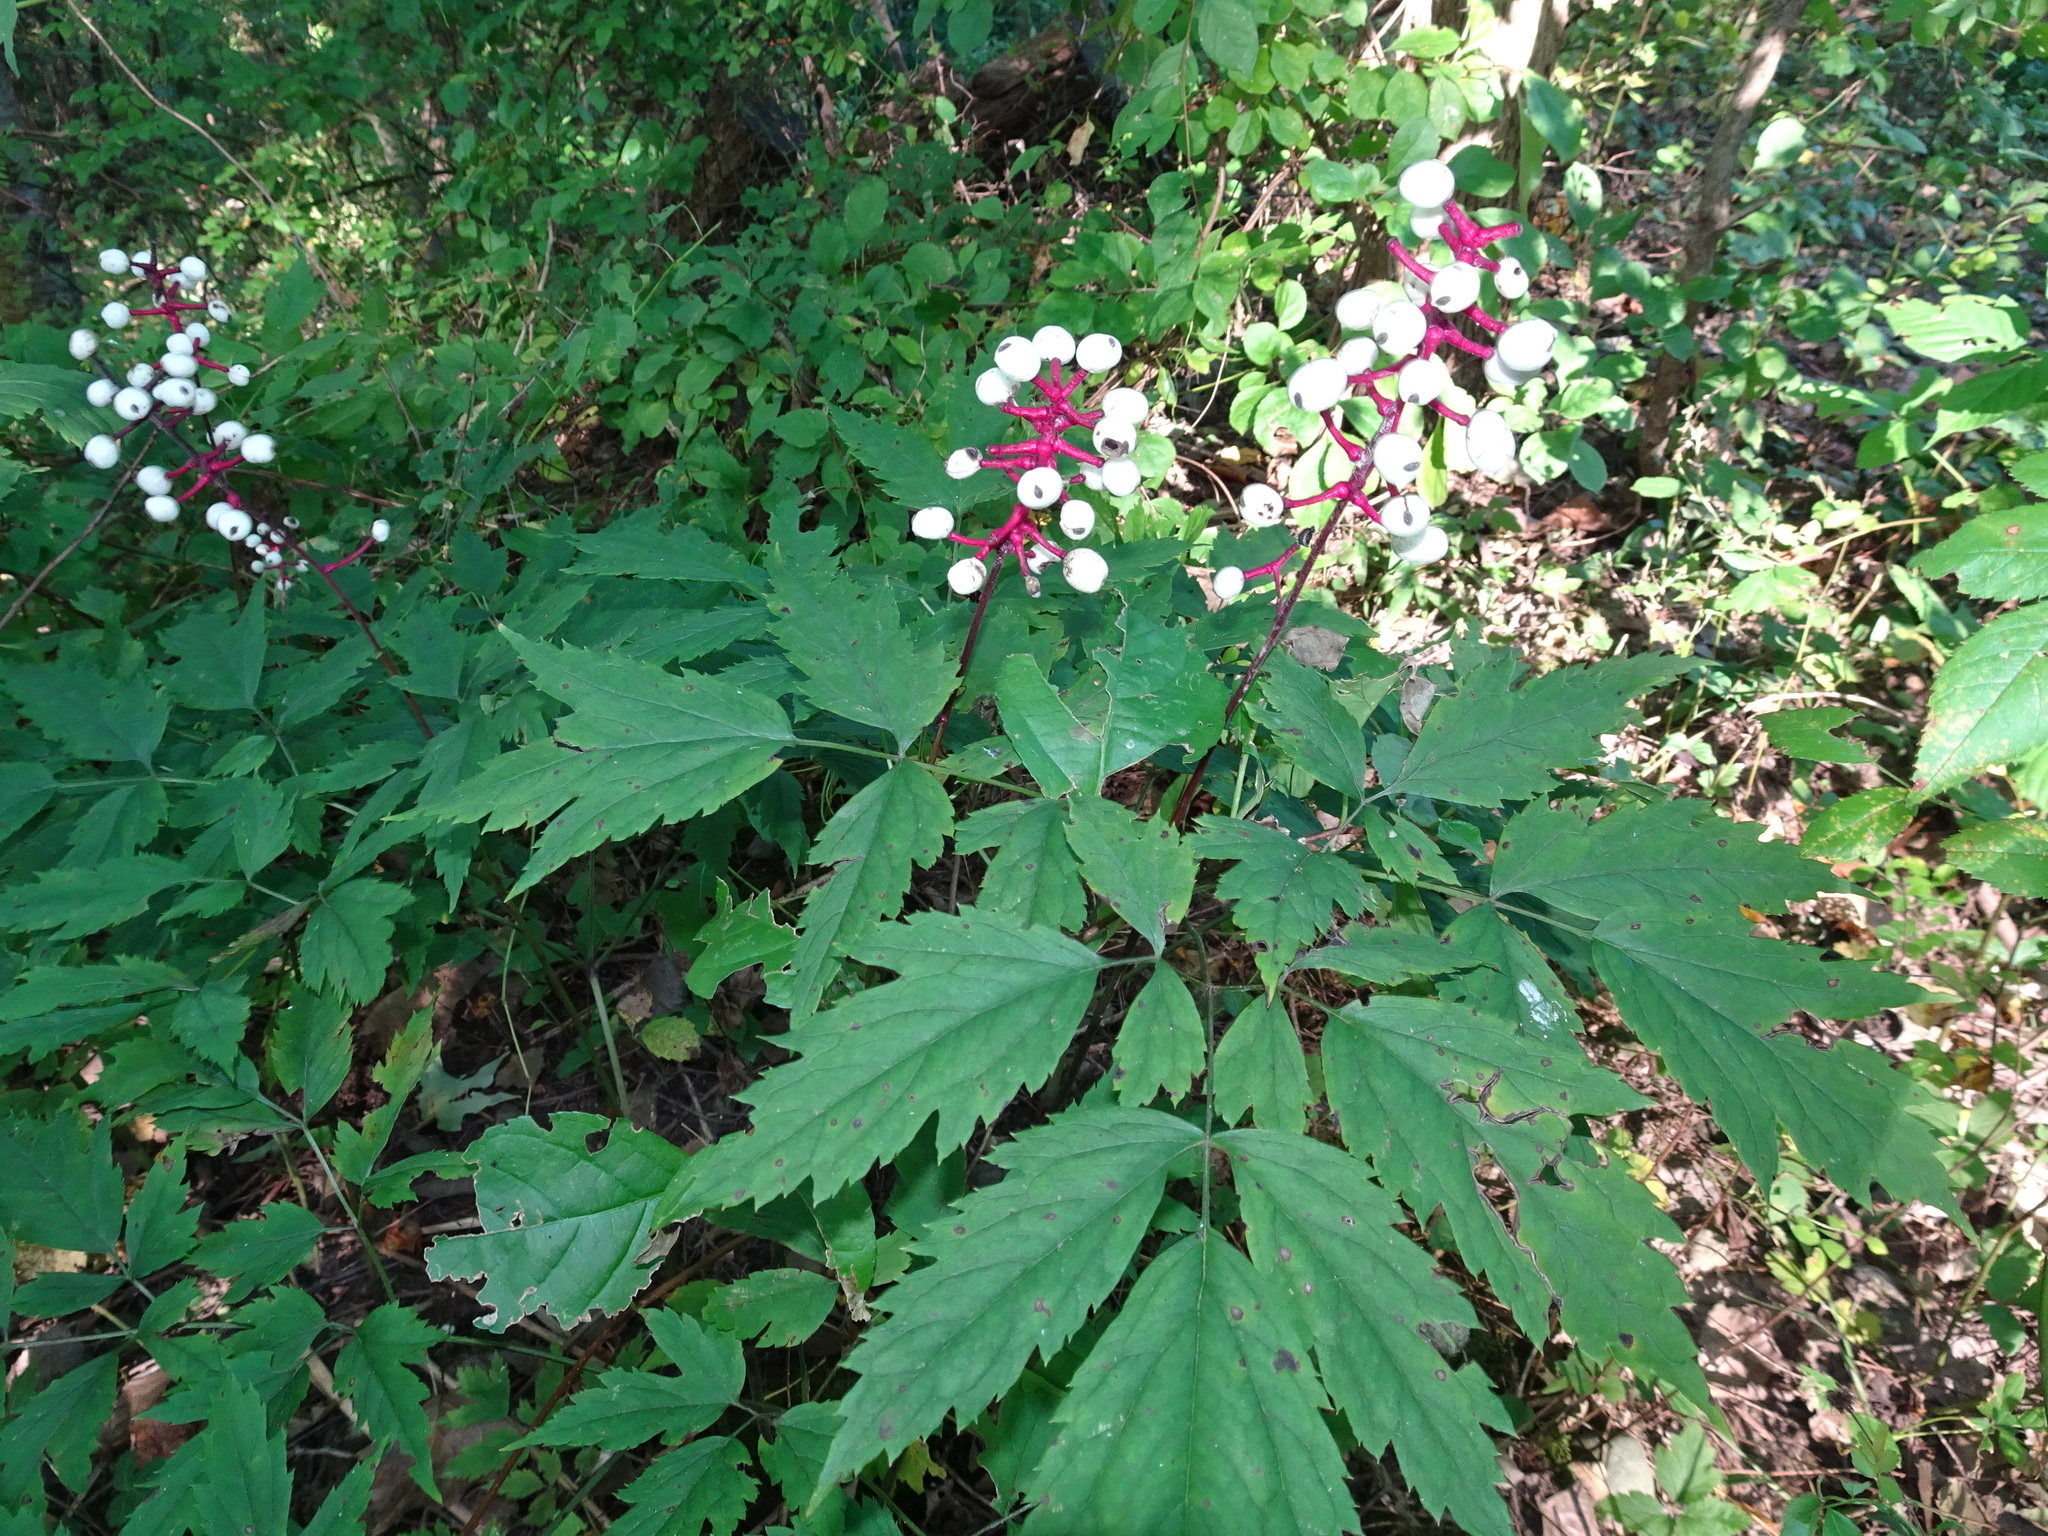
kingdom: Plantae
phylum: Tracheophyta
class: Magnoliopsida
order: Ranunculales
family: Ranunculaceae
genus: Actaea
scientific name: Actaea pachypoda
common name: Doll's-eyes
